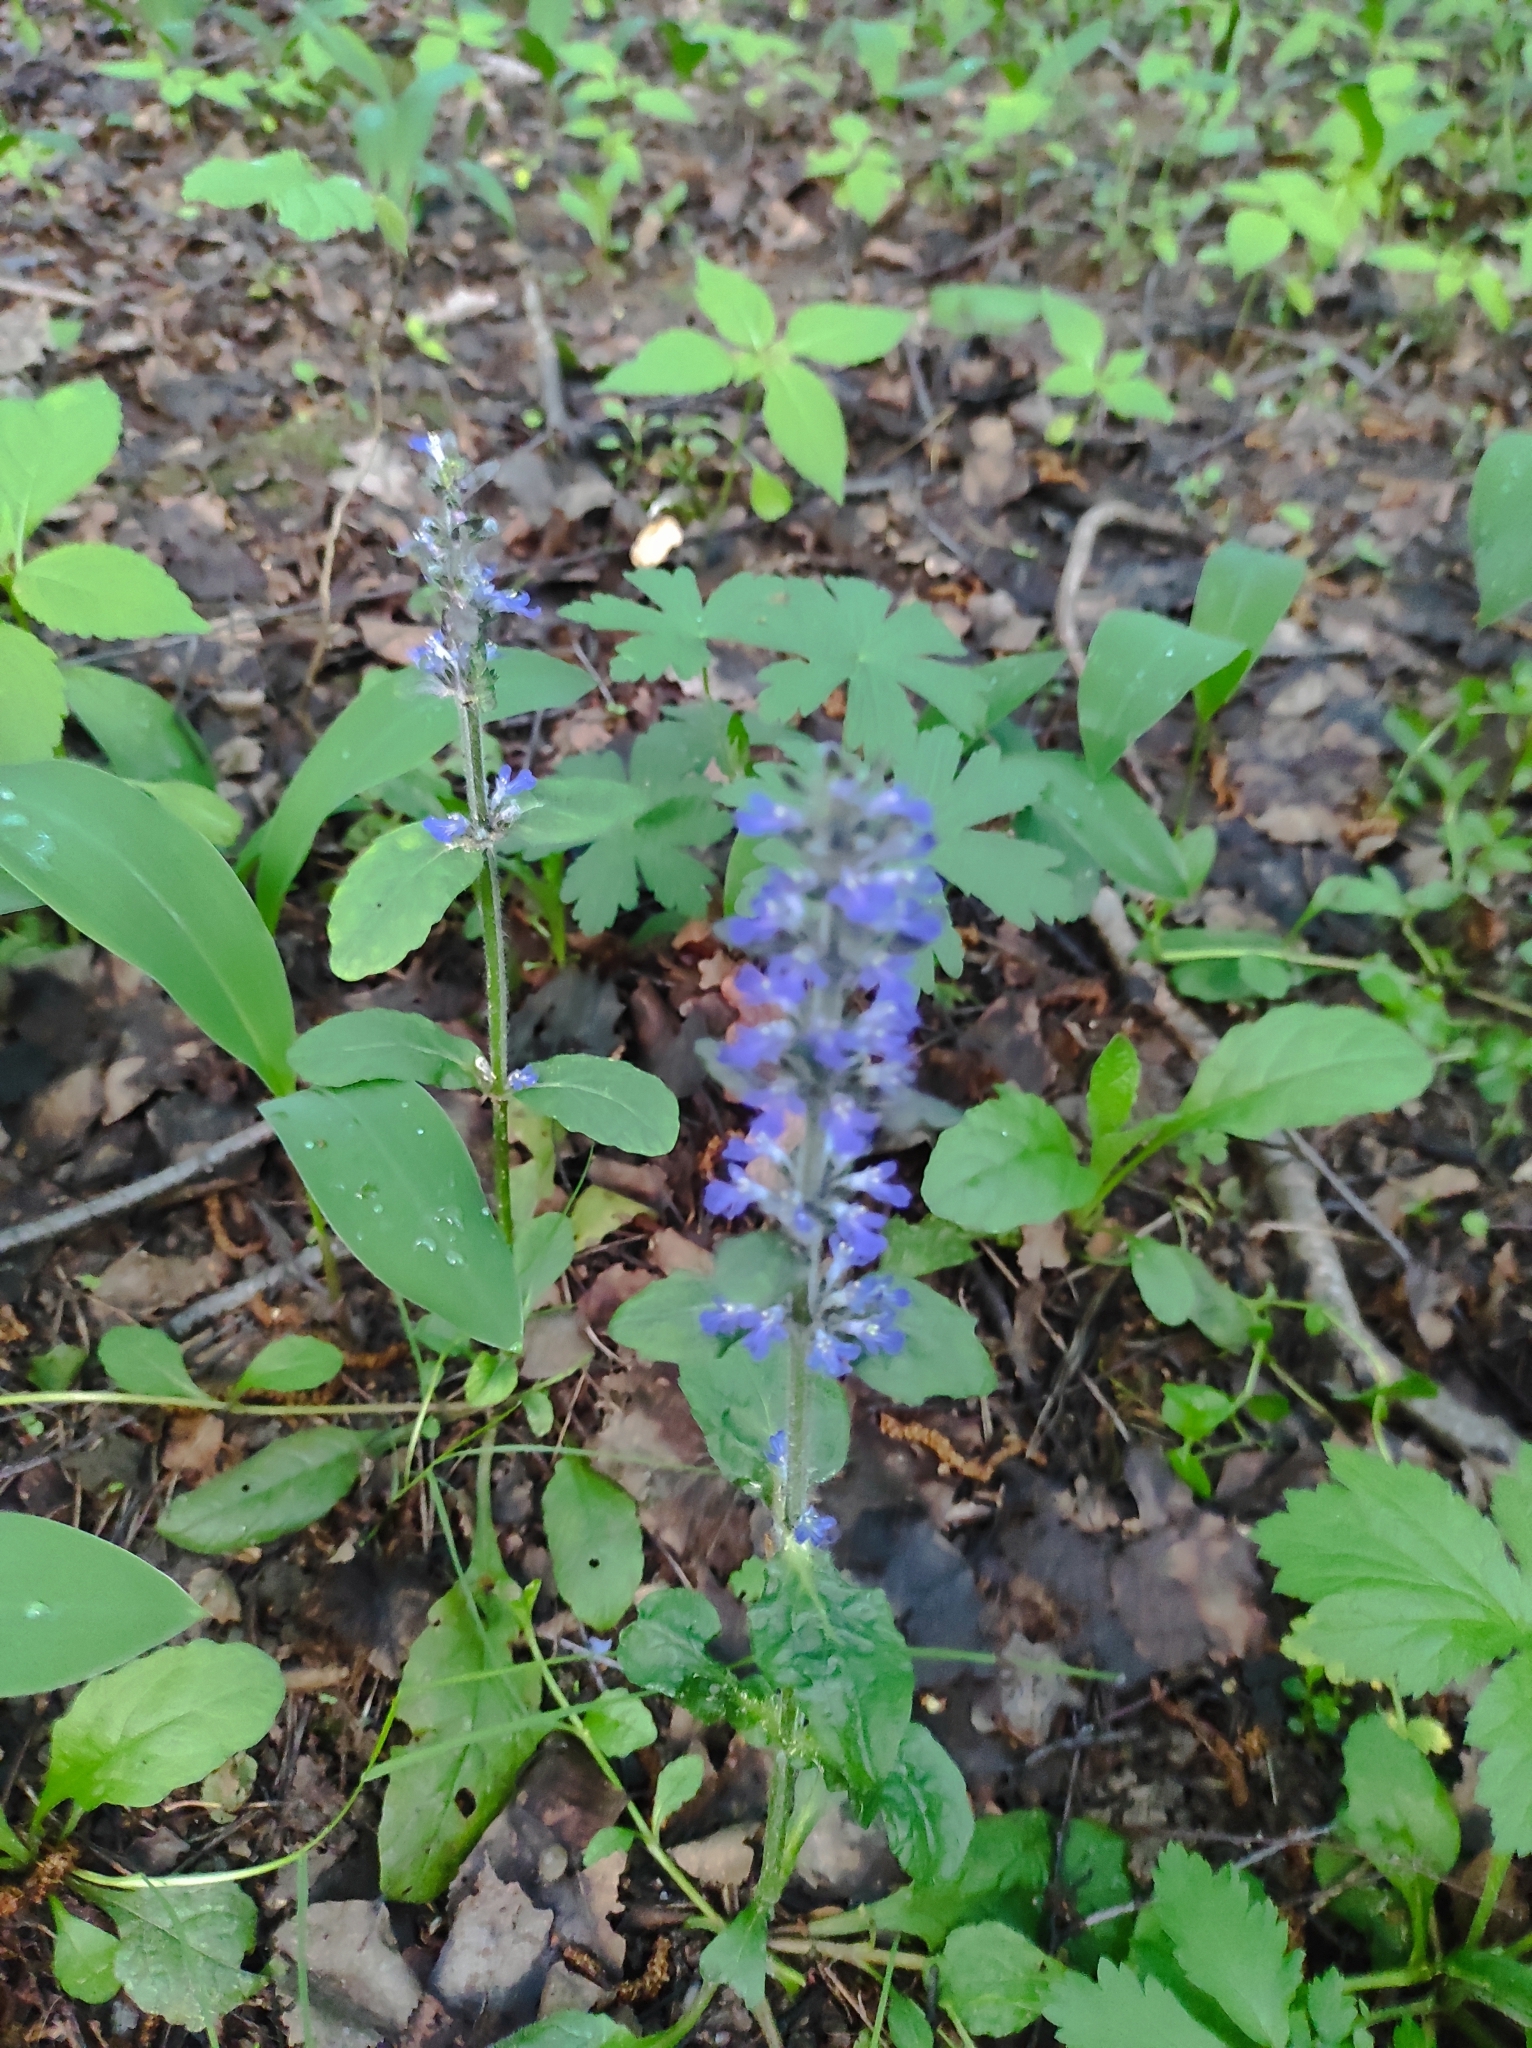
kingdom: Plantae
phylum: Tracheophyta
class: Magnoliopsida
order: Lamiales
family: Lamiaceae
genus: Ajuga
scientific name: Ajuga reptans
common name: Bugle
